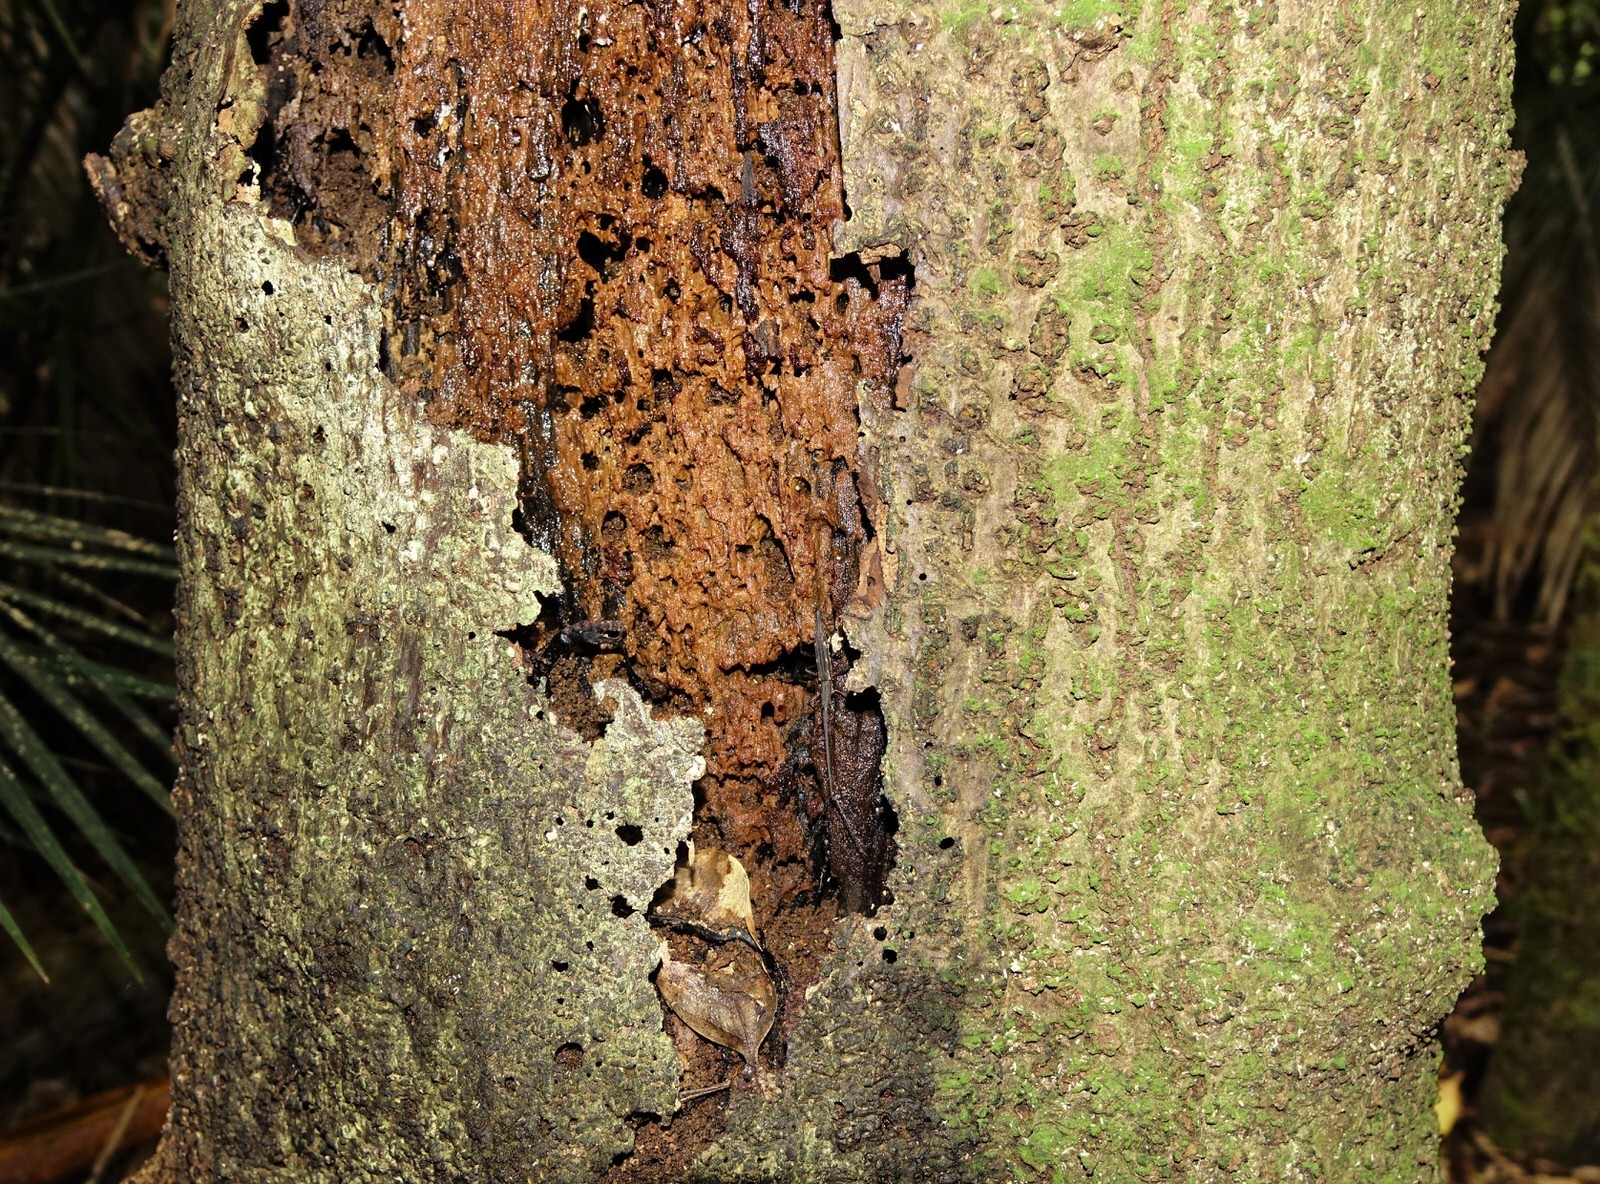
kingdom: Animalia
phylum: Arthropoda
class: Insecta
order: Coleoptera
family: Brentidae
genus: Lasiorhynchus
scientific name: Lasiorhynchus barbicornis
